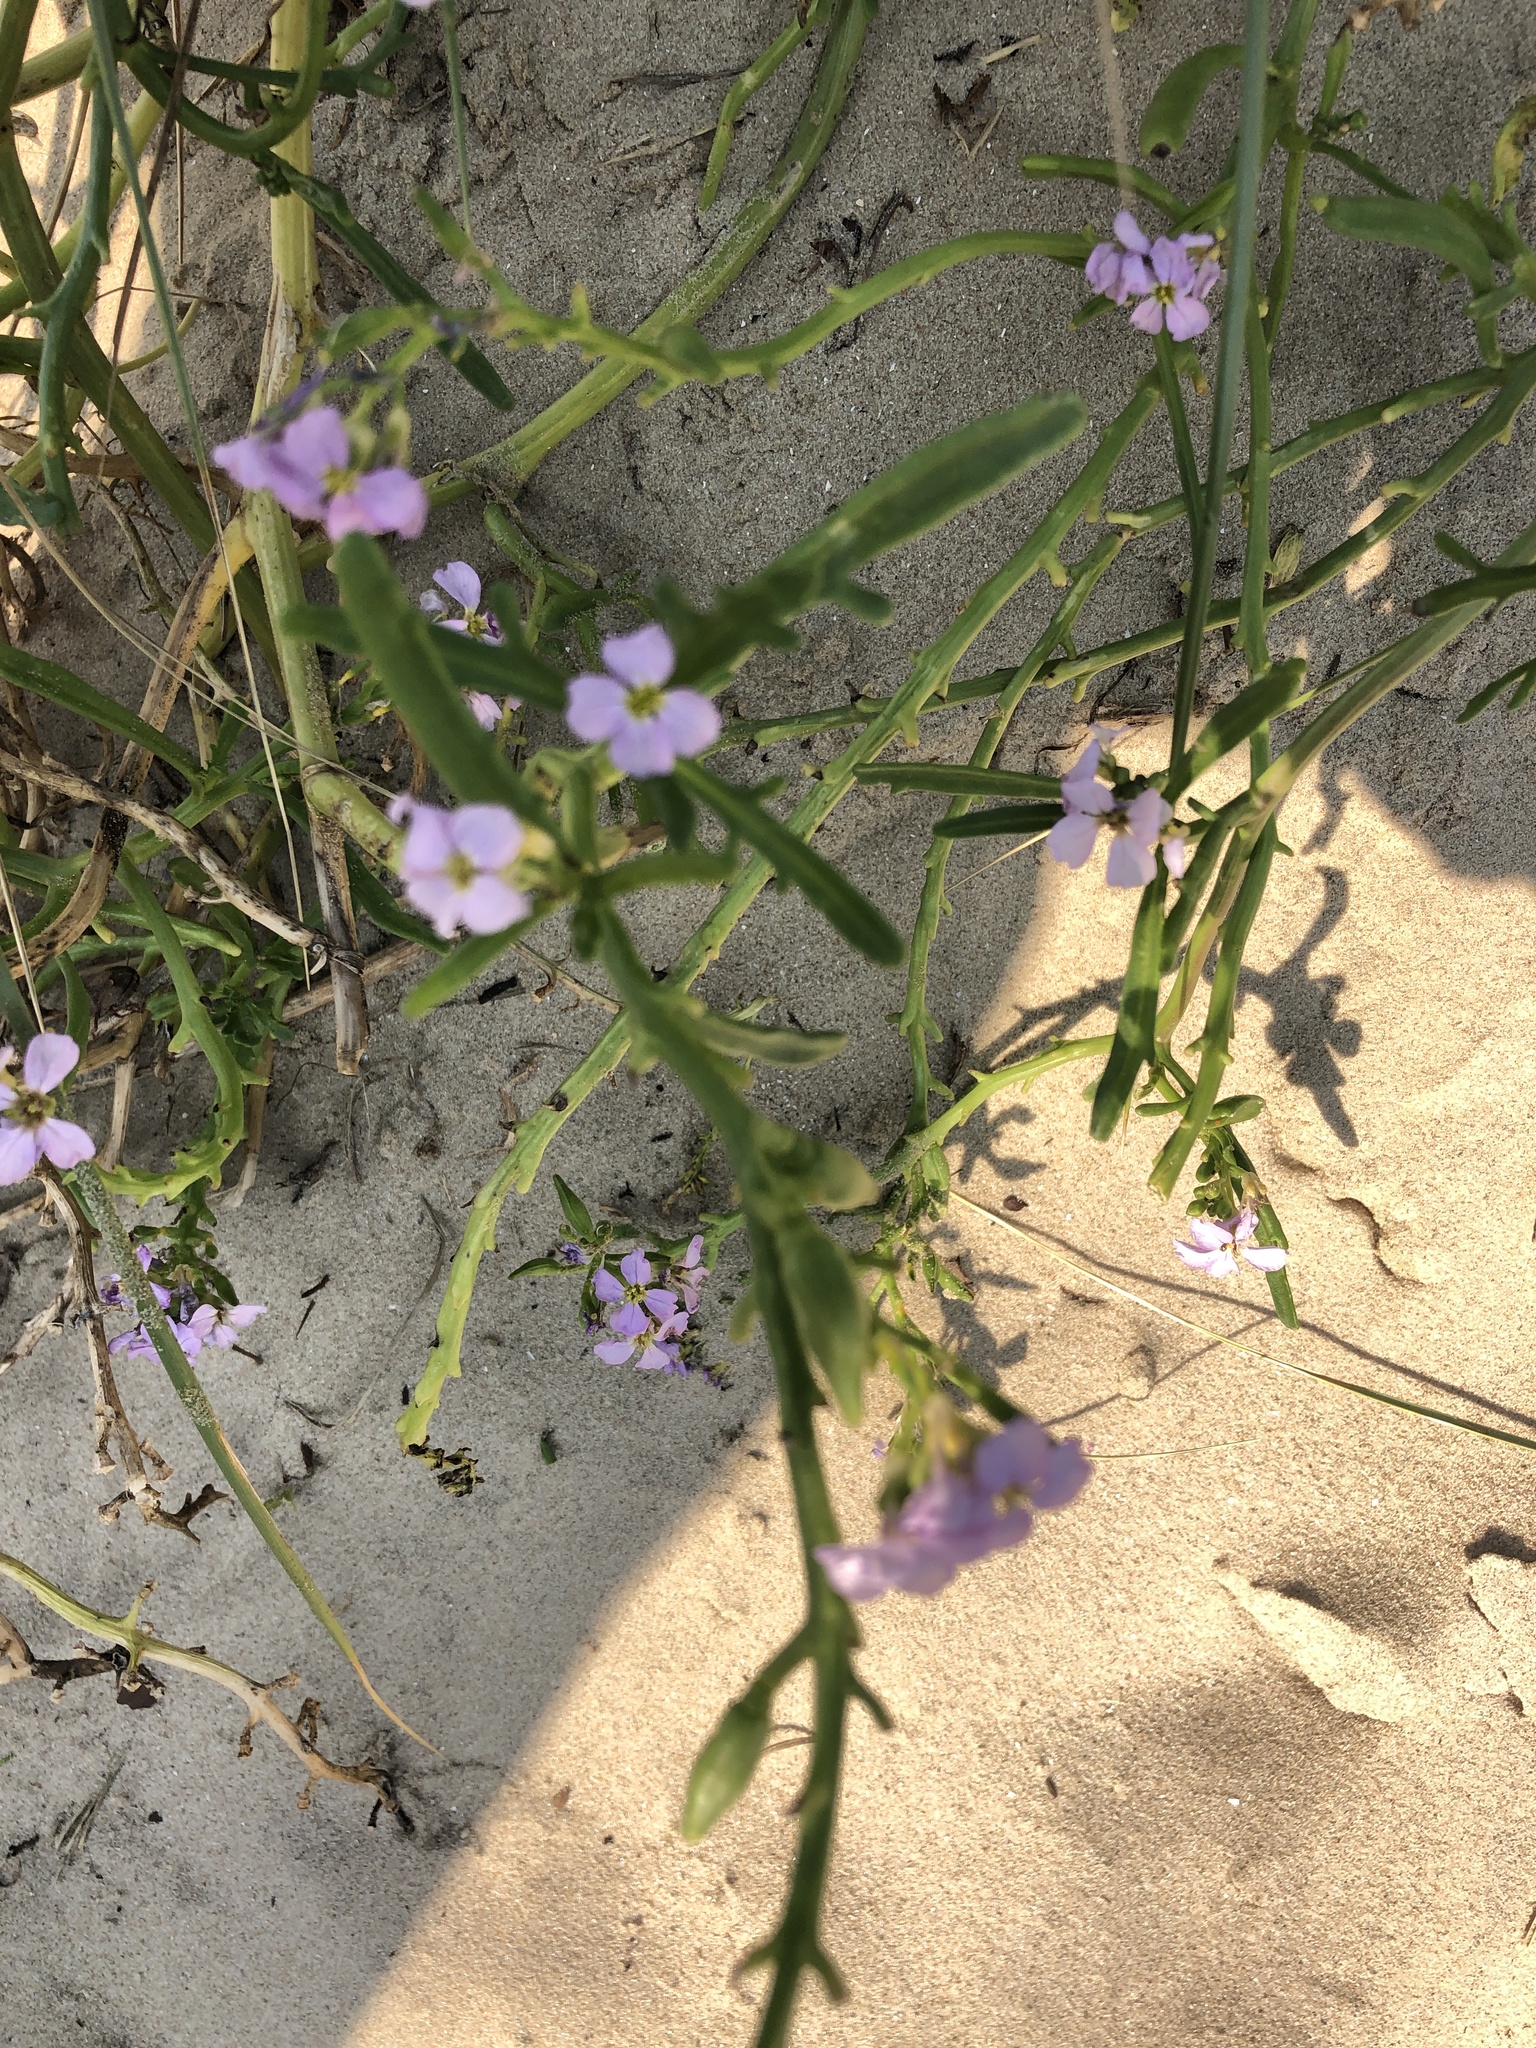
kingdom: Plantae
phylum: Tracheophyta
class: Magnoliopsida
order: Brassicales
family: Brassicaceae
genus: Cakile
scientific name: Cakile maritima
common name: Sea rocket
